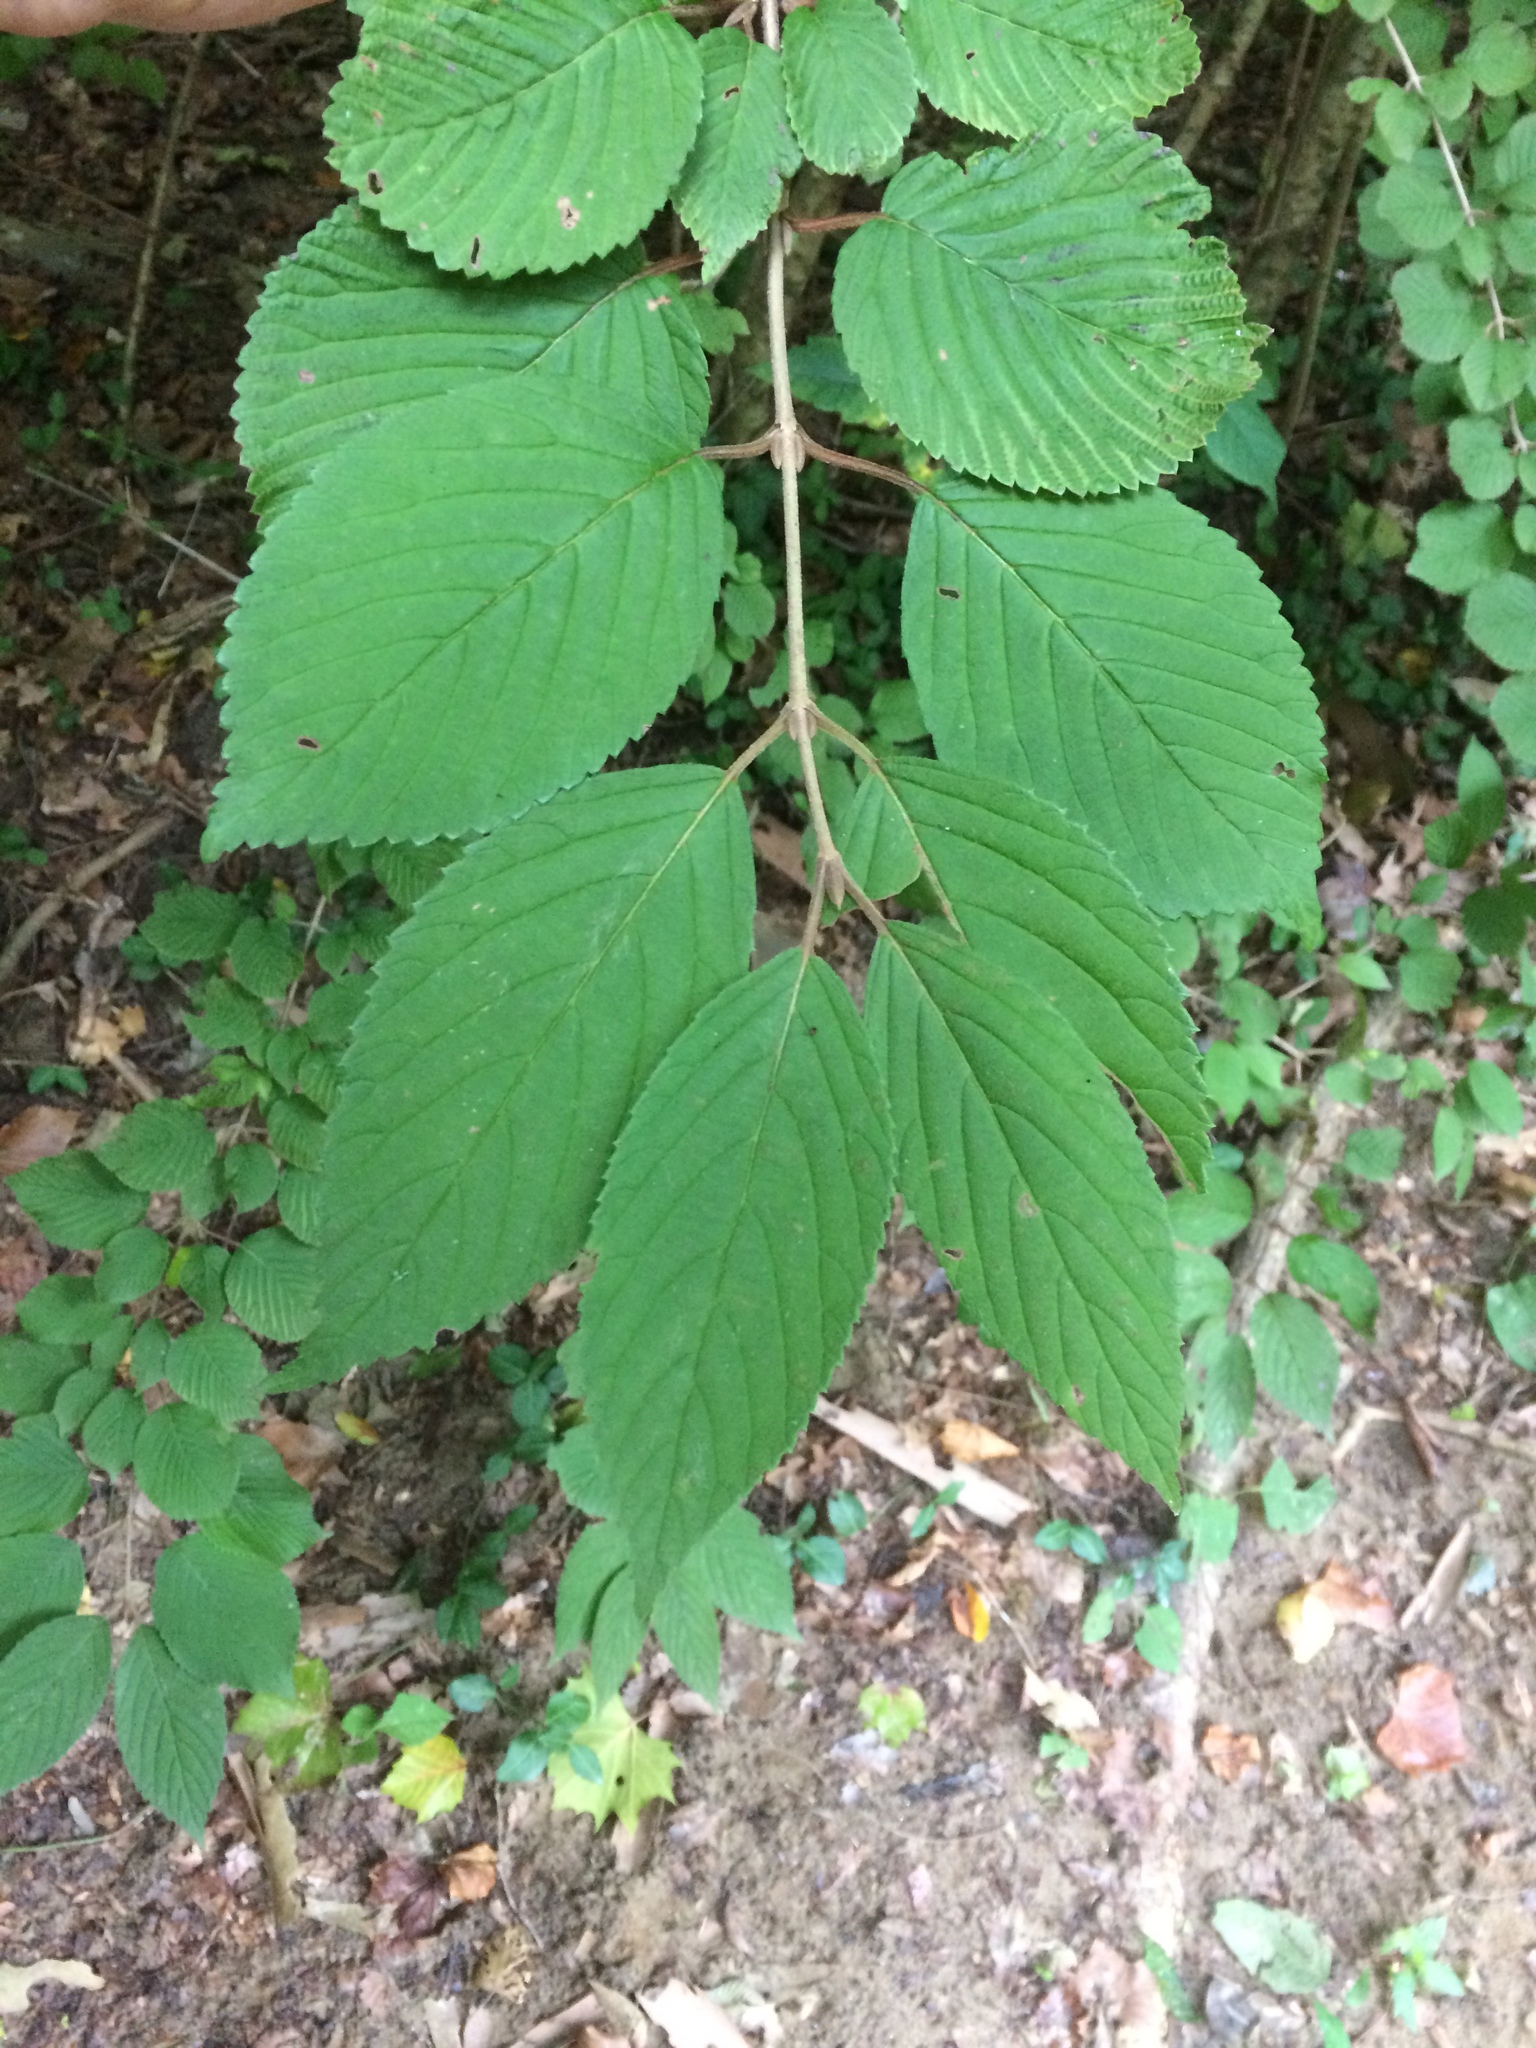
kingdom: Plantae
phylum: Tracheophyta
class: Magnoliopsida
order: Dipsacales
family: Viburnaceae
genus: Viburnum
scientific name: Viburnum plicatum
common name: Japanese snowball
